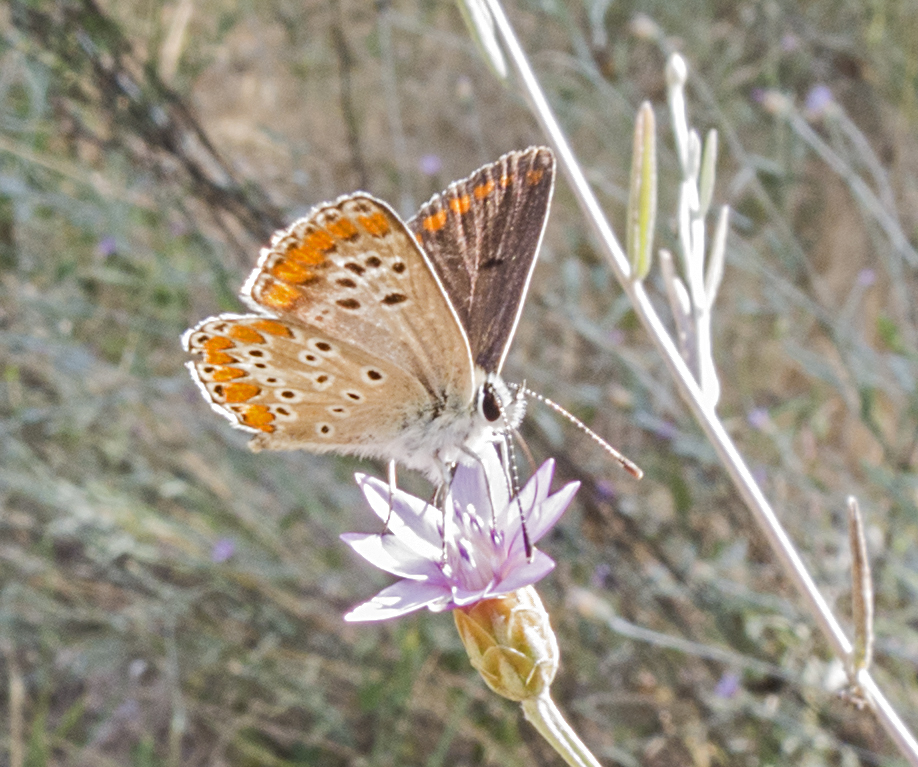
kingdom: Animalia
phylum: Arthropoda
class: Insecta
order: Lepidoptera
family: Lycaenidae
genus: Aricia
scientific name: Aricia agestis
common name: Brown argus
